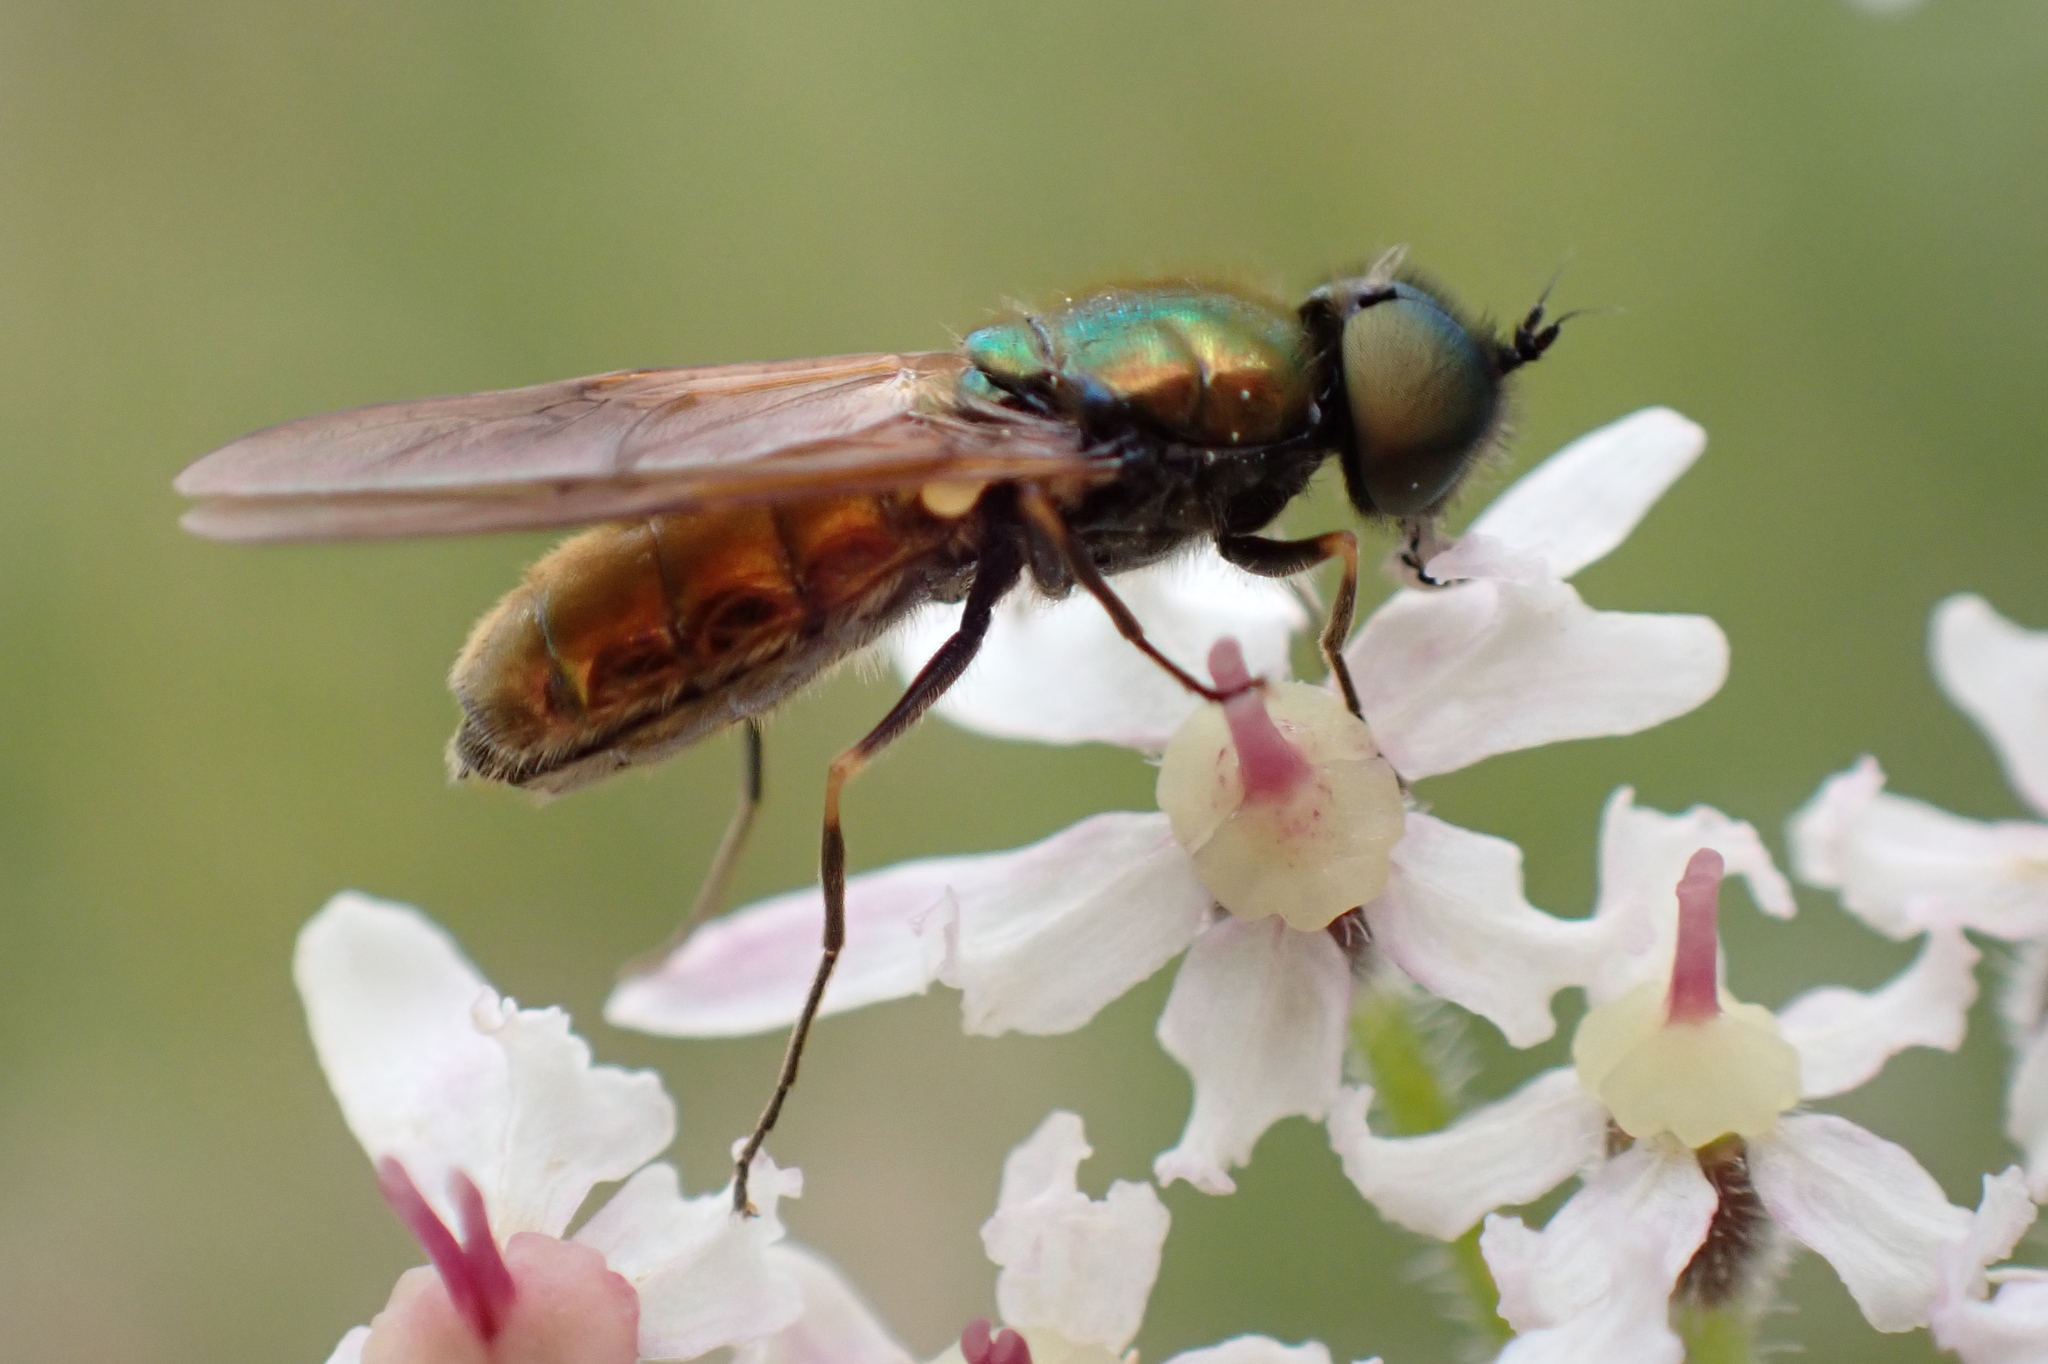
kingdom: Animalia
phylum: Arthropoda
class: Insecta
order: Diptera
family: Stratiomyidae
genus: Chloromyia
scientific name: Chloromyia formosa
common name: Soldier fly
